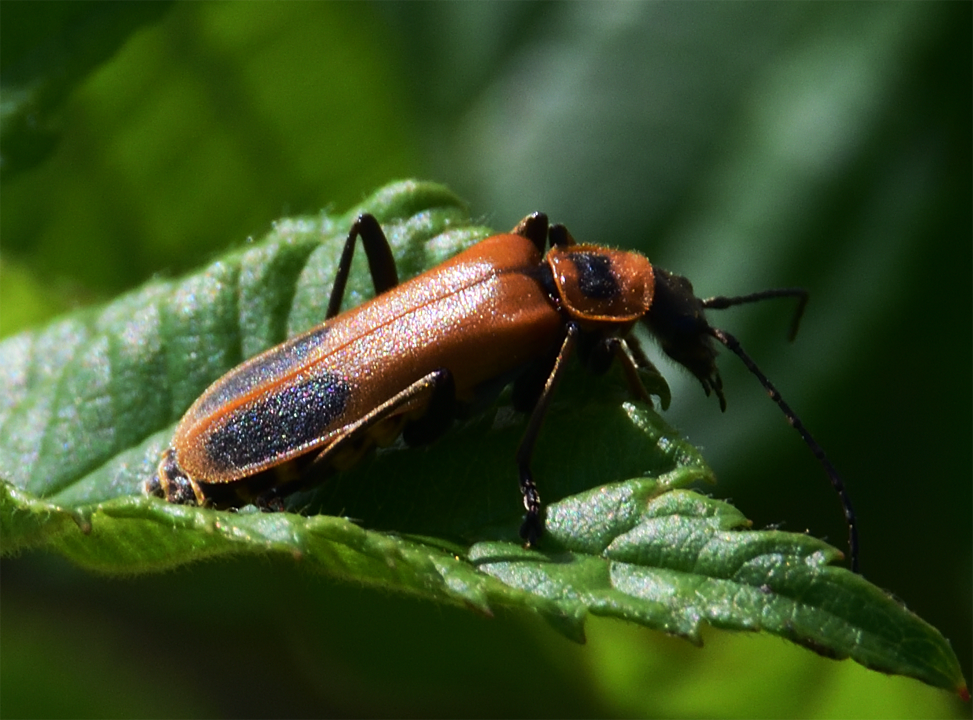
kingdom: Animalia
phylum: Arthropoda
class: Insecta
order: Coleoptera
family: Cantharidae
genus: Chauliognathus
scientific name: Chauliognathus pensylvanicus
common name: Goldenrod soldier beetle
